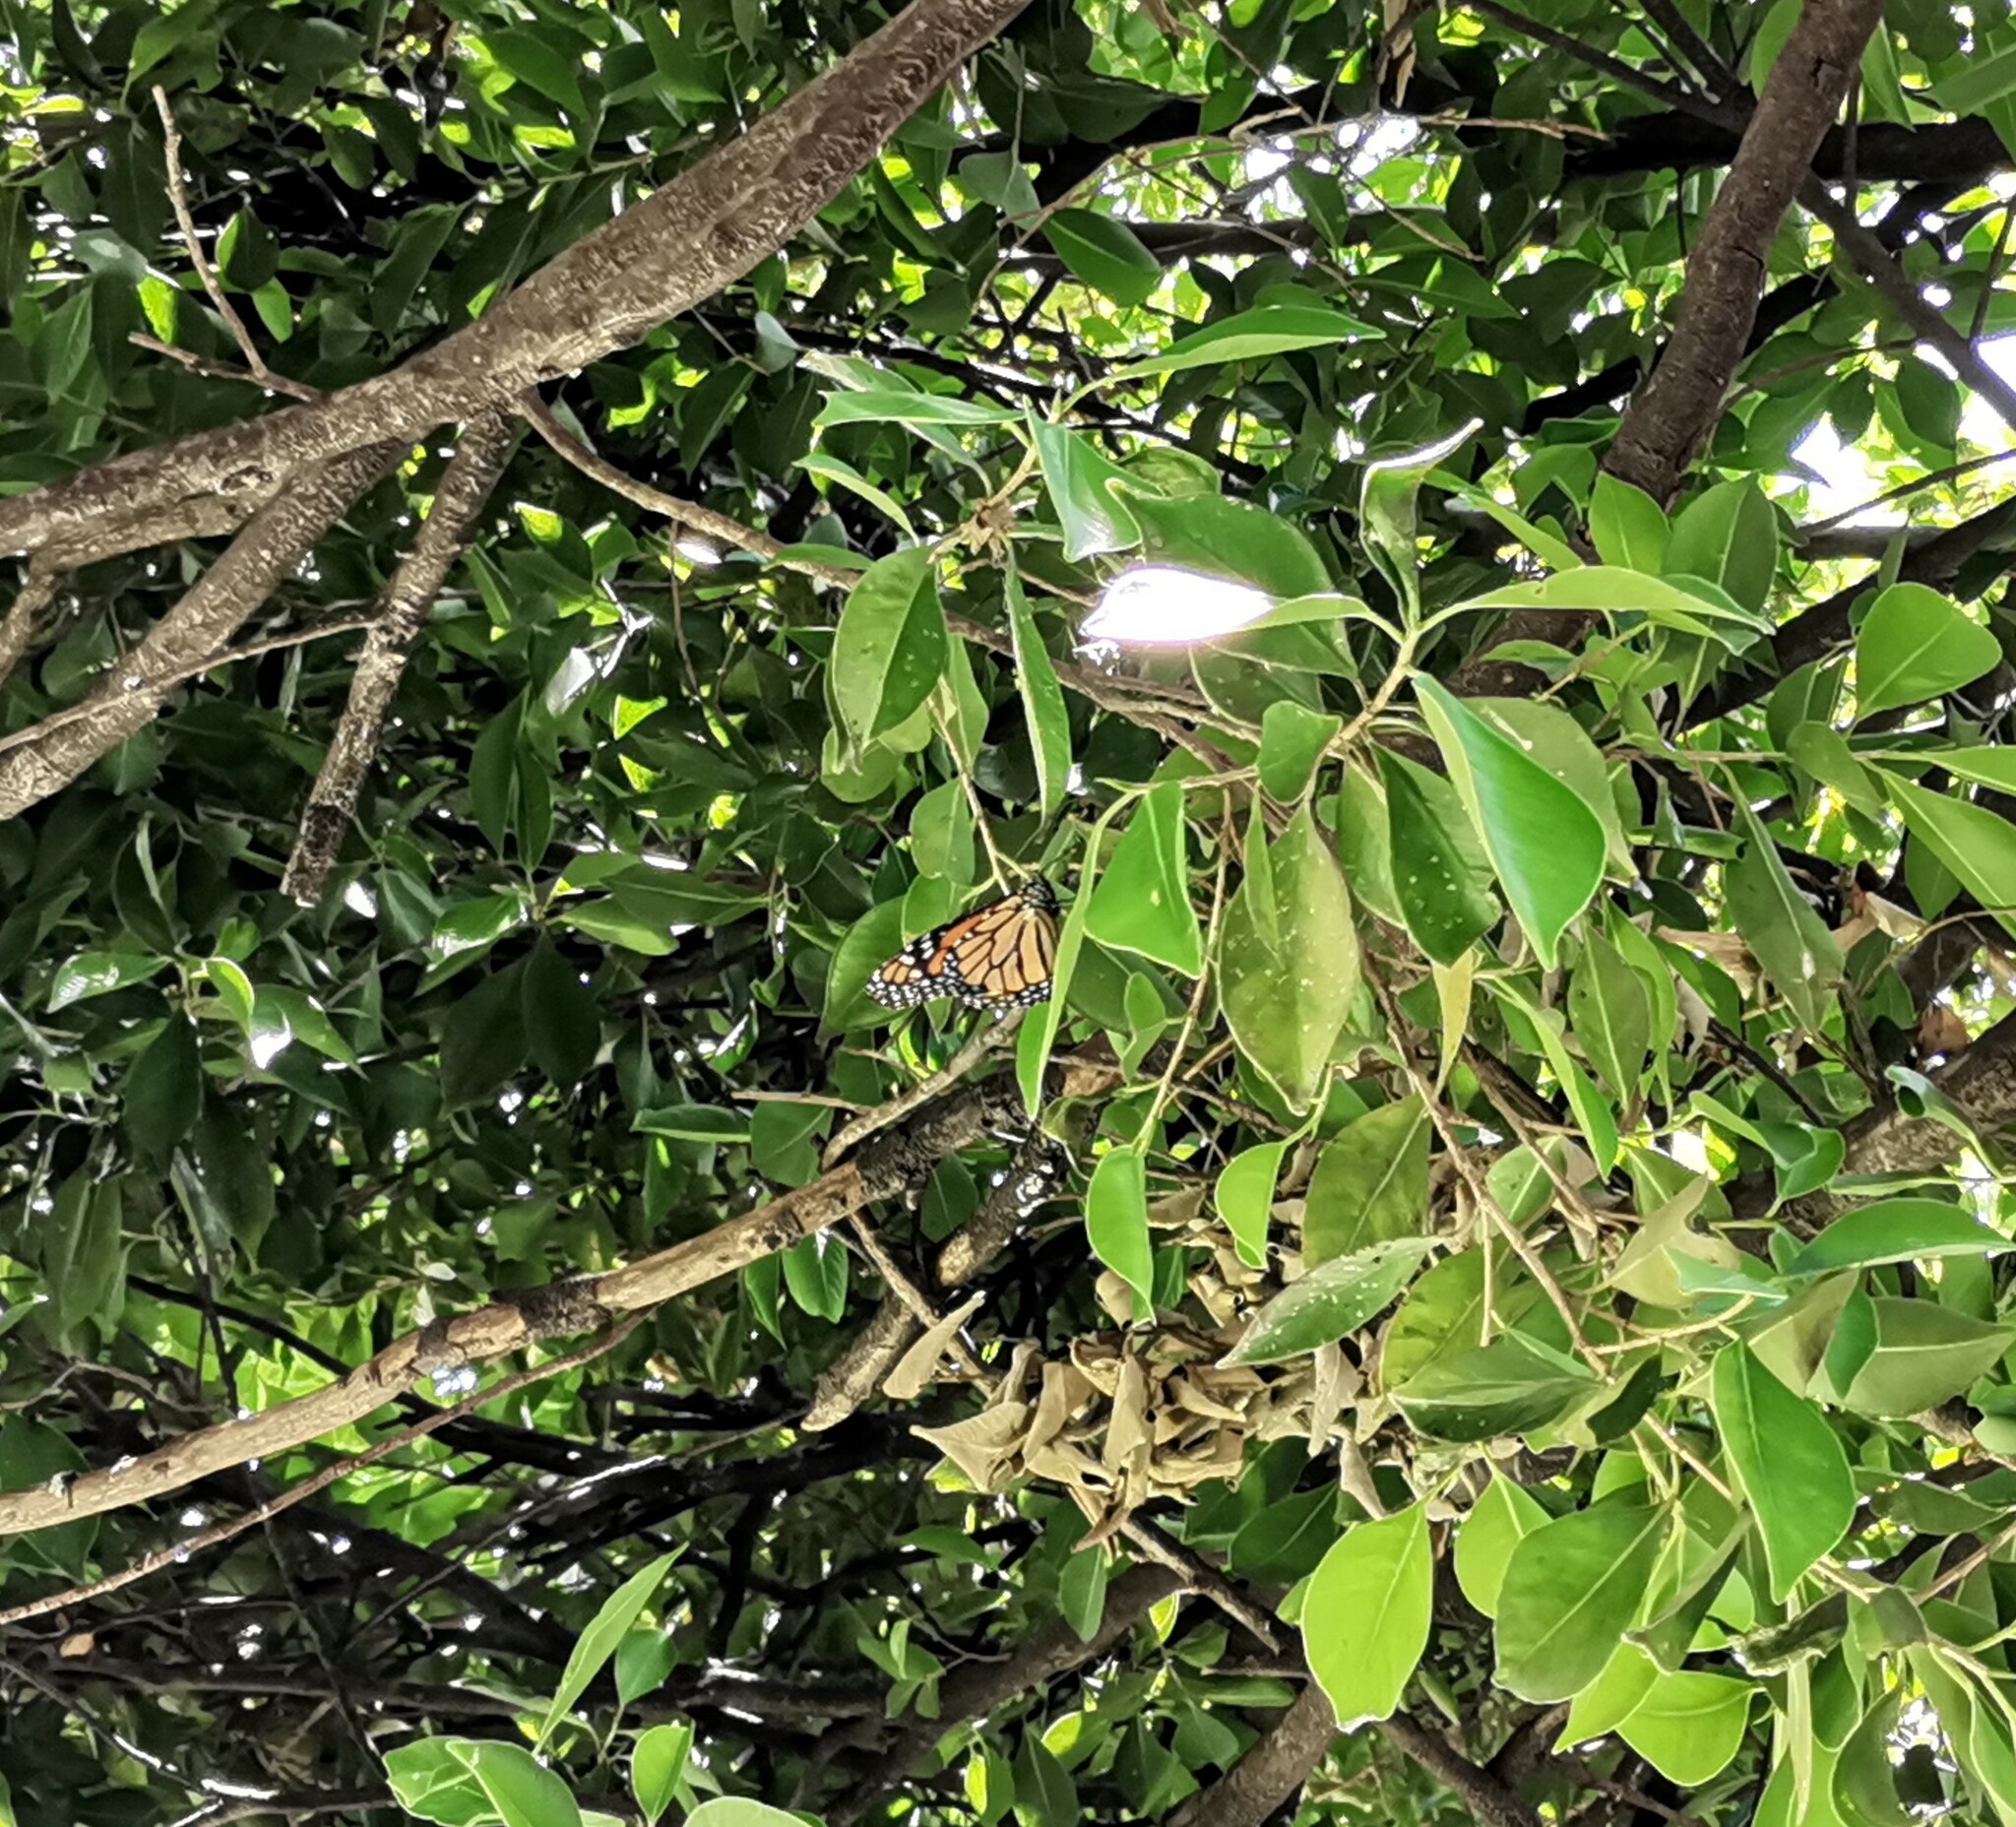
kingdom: Animalia
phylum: Arthropoda
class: Insecta
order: Lepidoptera
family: Nymphalidae
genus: Danaus
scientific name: Danaus plexippus
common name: Monarch
